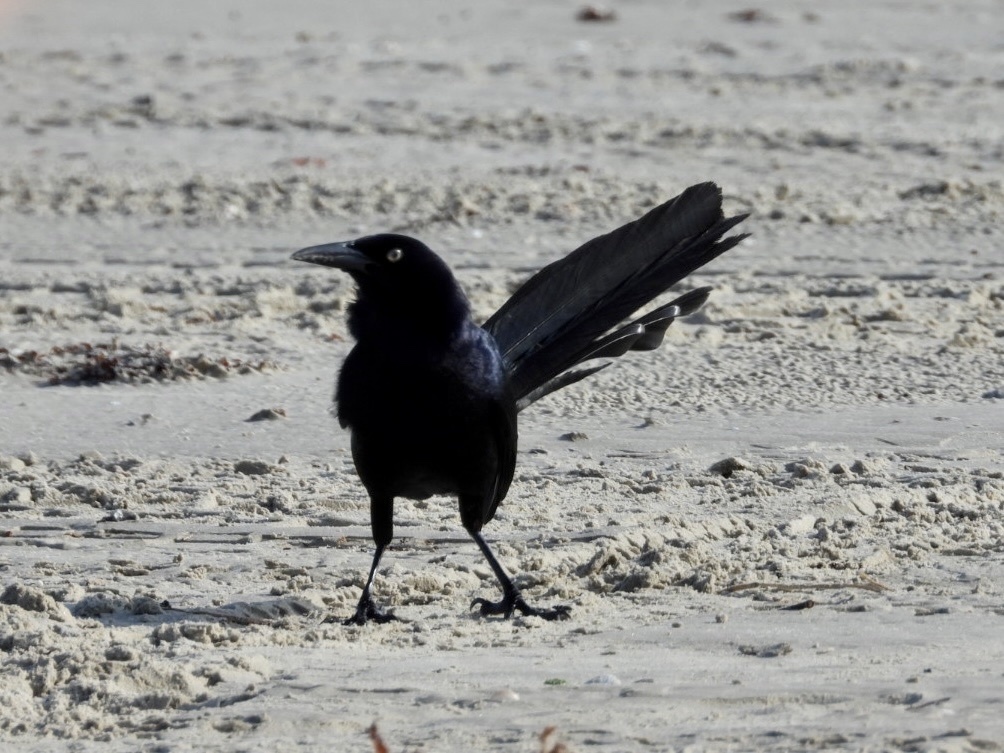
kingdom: Animalia
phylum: Chordata
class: Aves
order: Passeriformes
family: Icteridae
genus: Quiscalus
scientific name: Quiscalus mexicanus
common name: Great-tailed grackle
